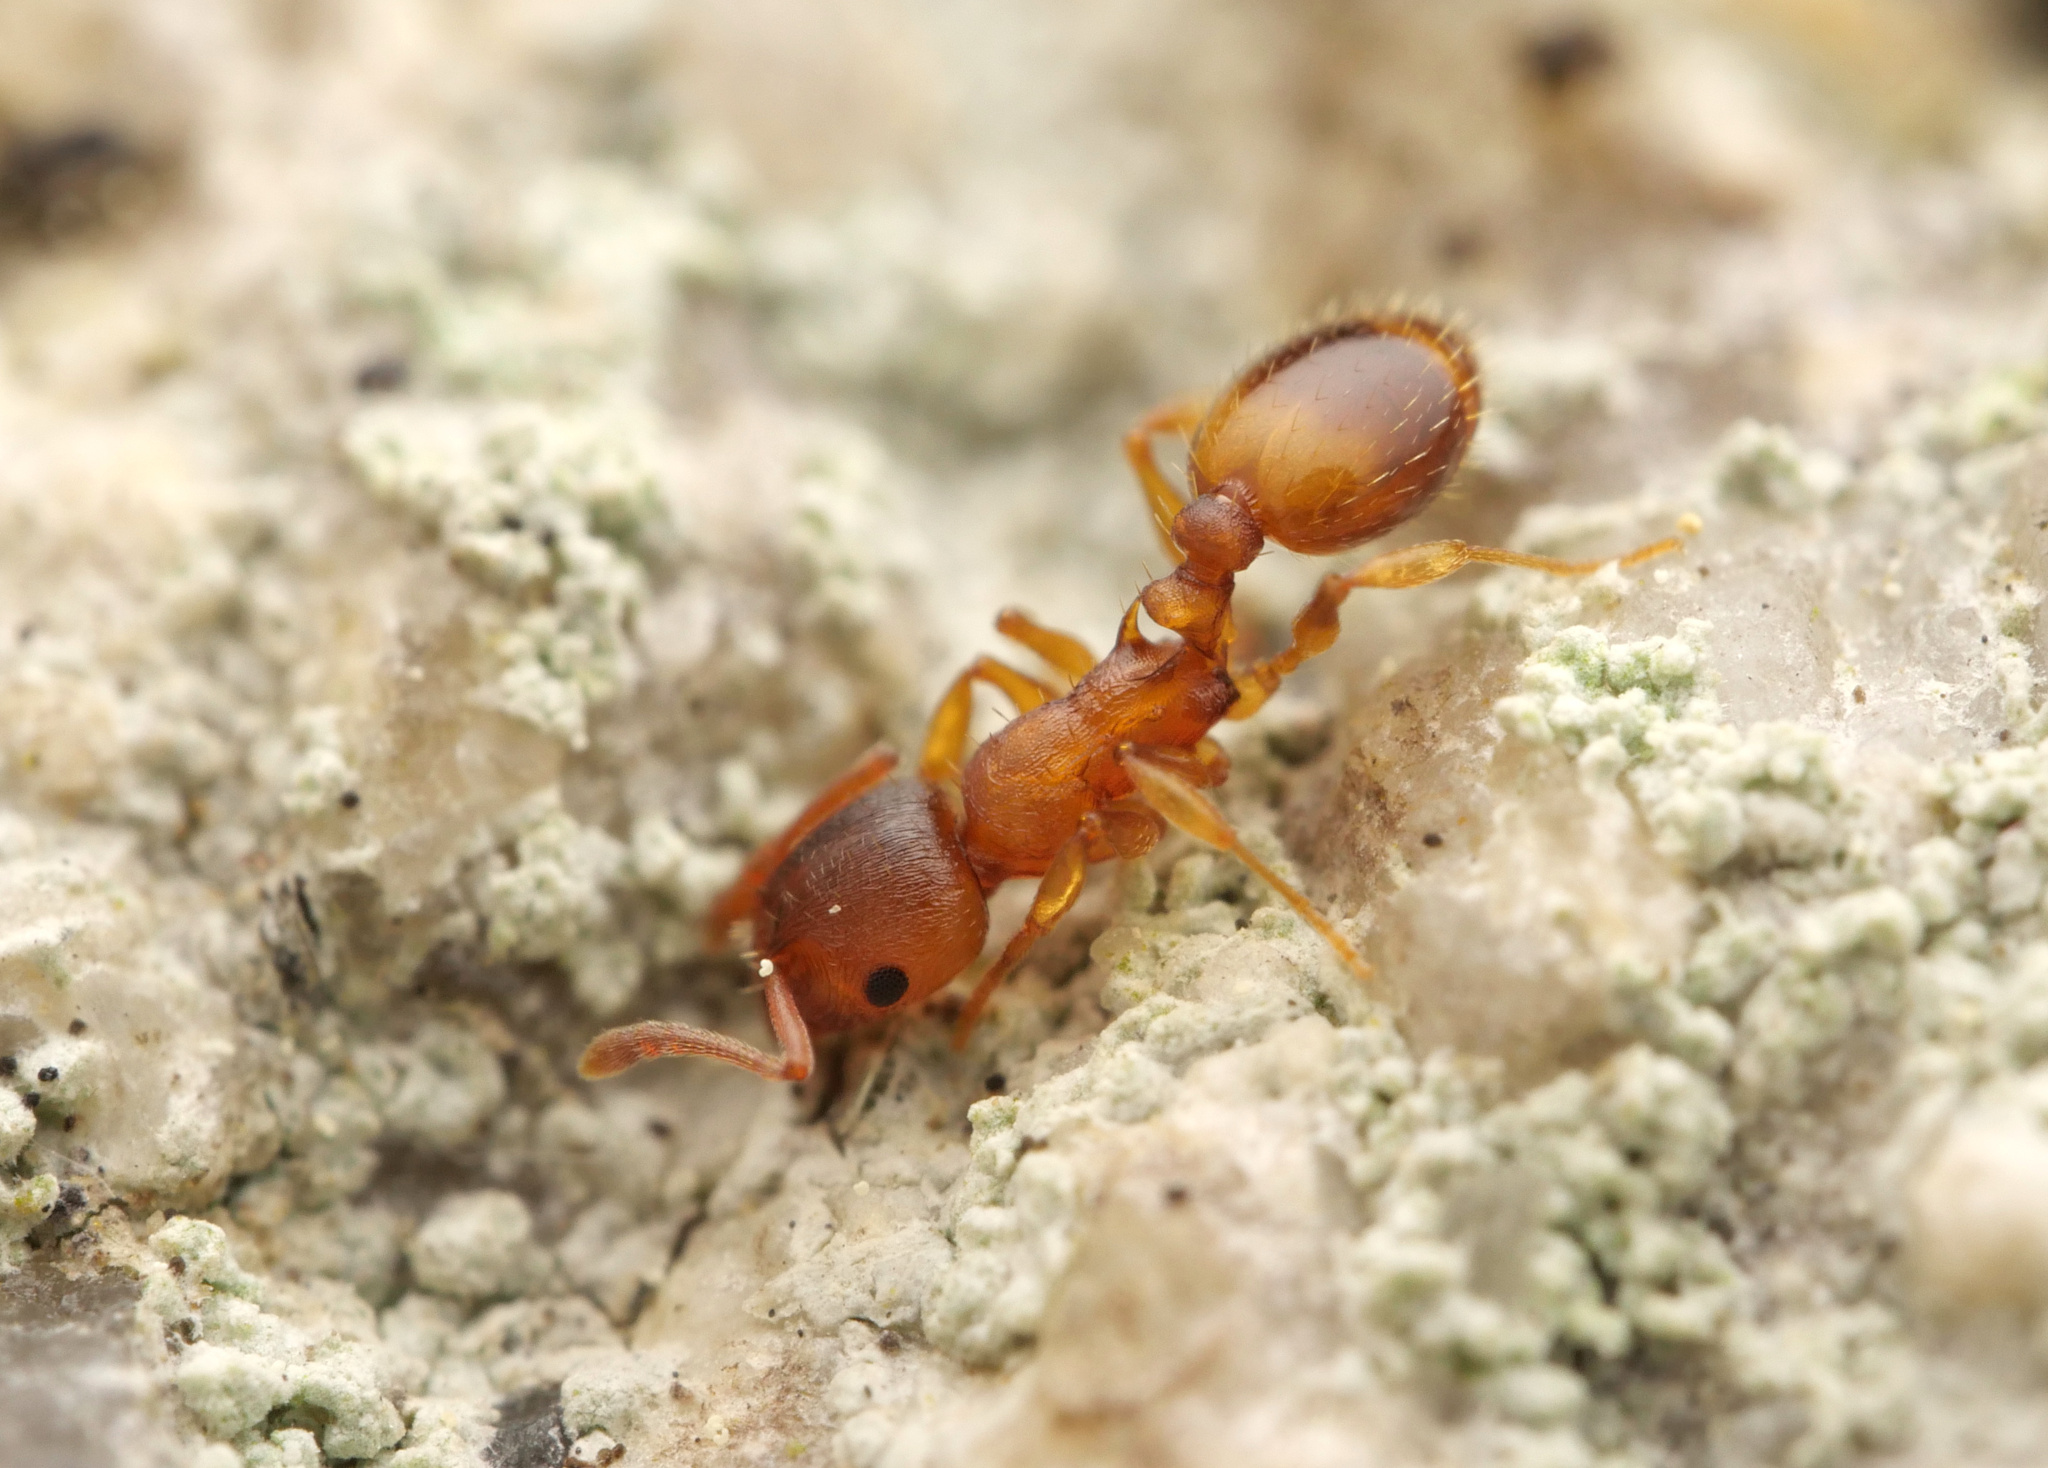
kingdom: Animalia
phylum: Arthropoda
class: Insecta
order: Hymenoptera
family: Formicidae
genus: Temnothorax
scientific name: Temnothorax crassispinus
